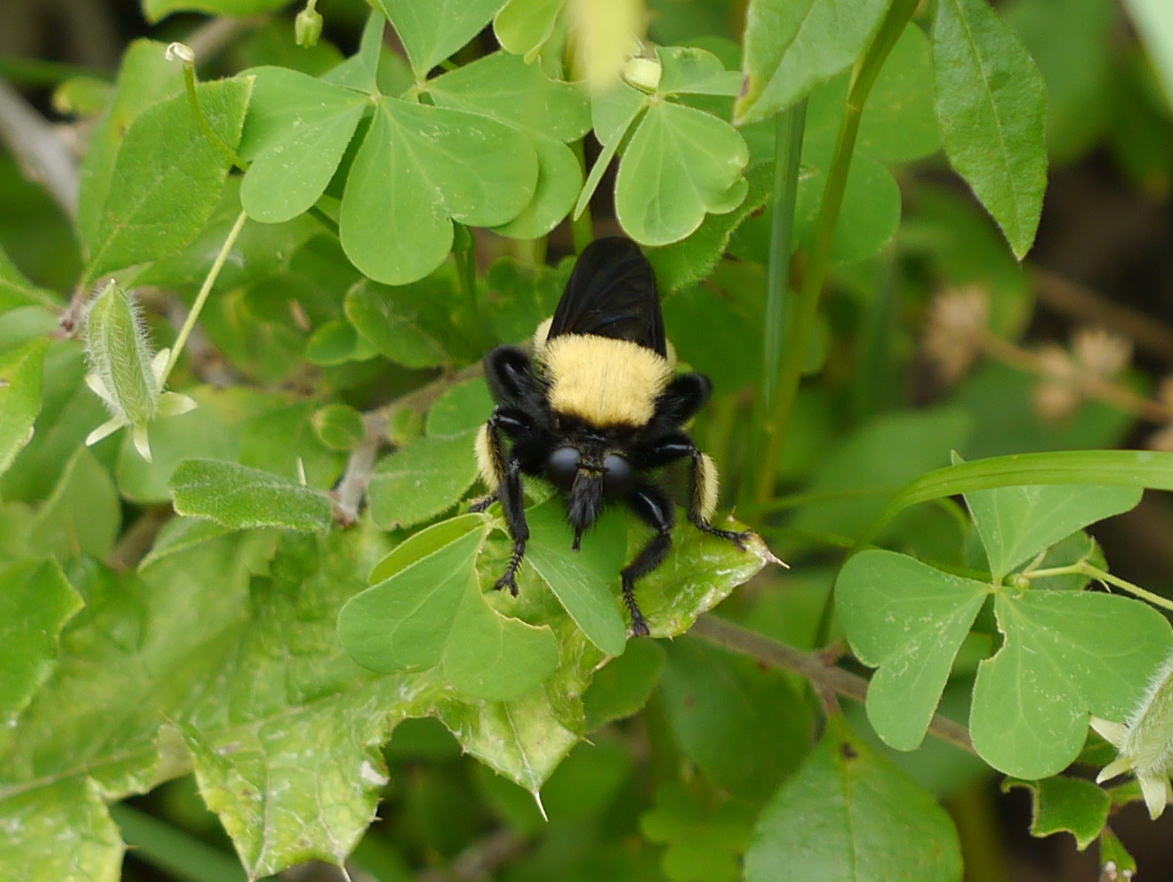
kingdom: Animalia
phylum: Arthropoda
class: Insecta
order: Diptera
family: Asilidae
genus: Laphria
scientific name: Laphria macquarti
